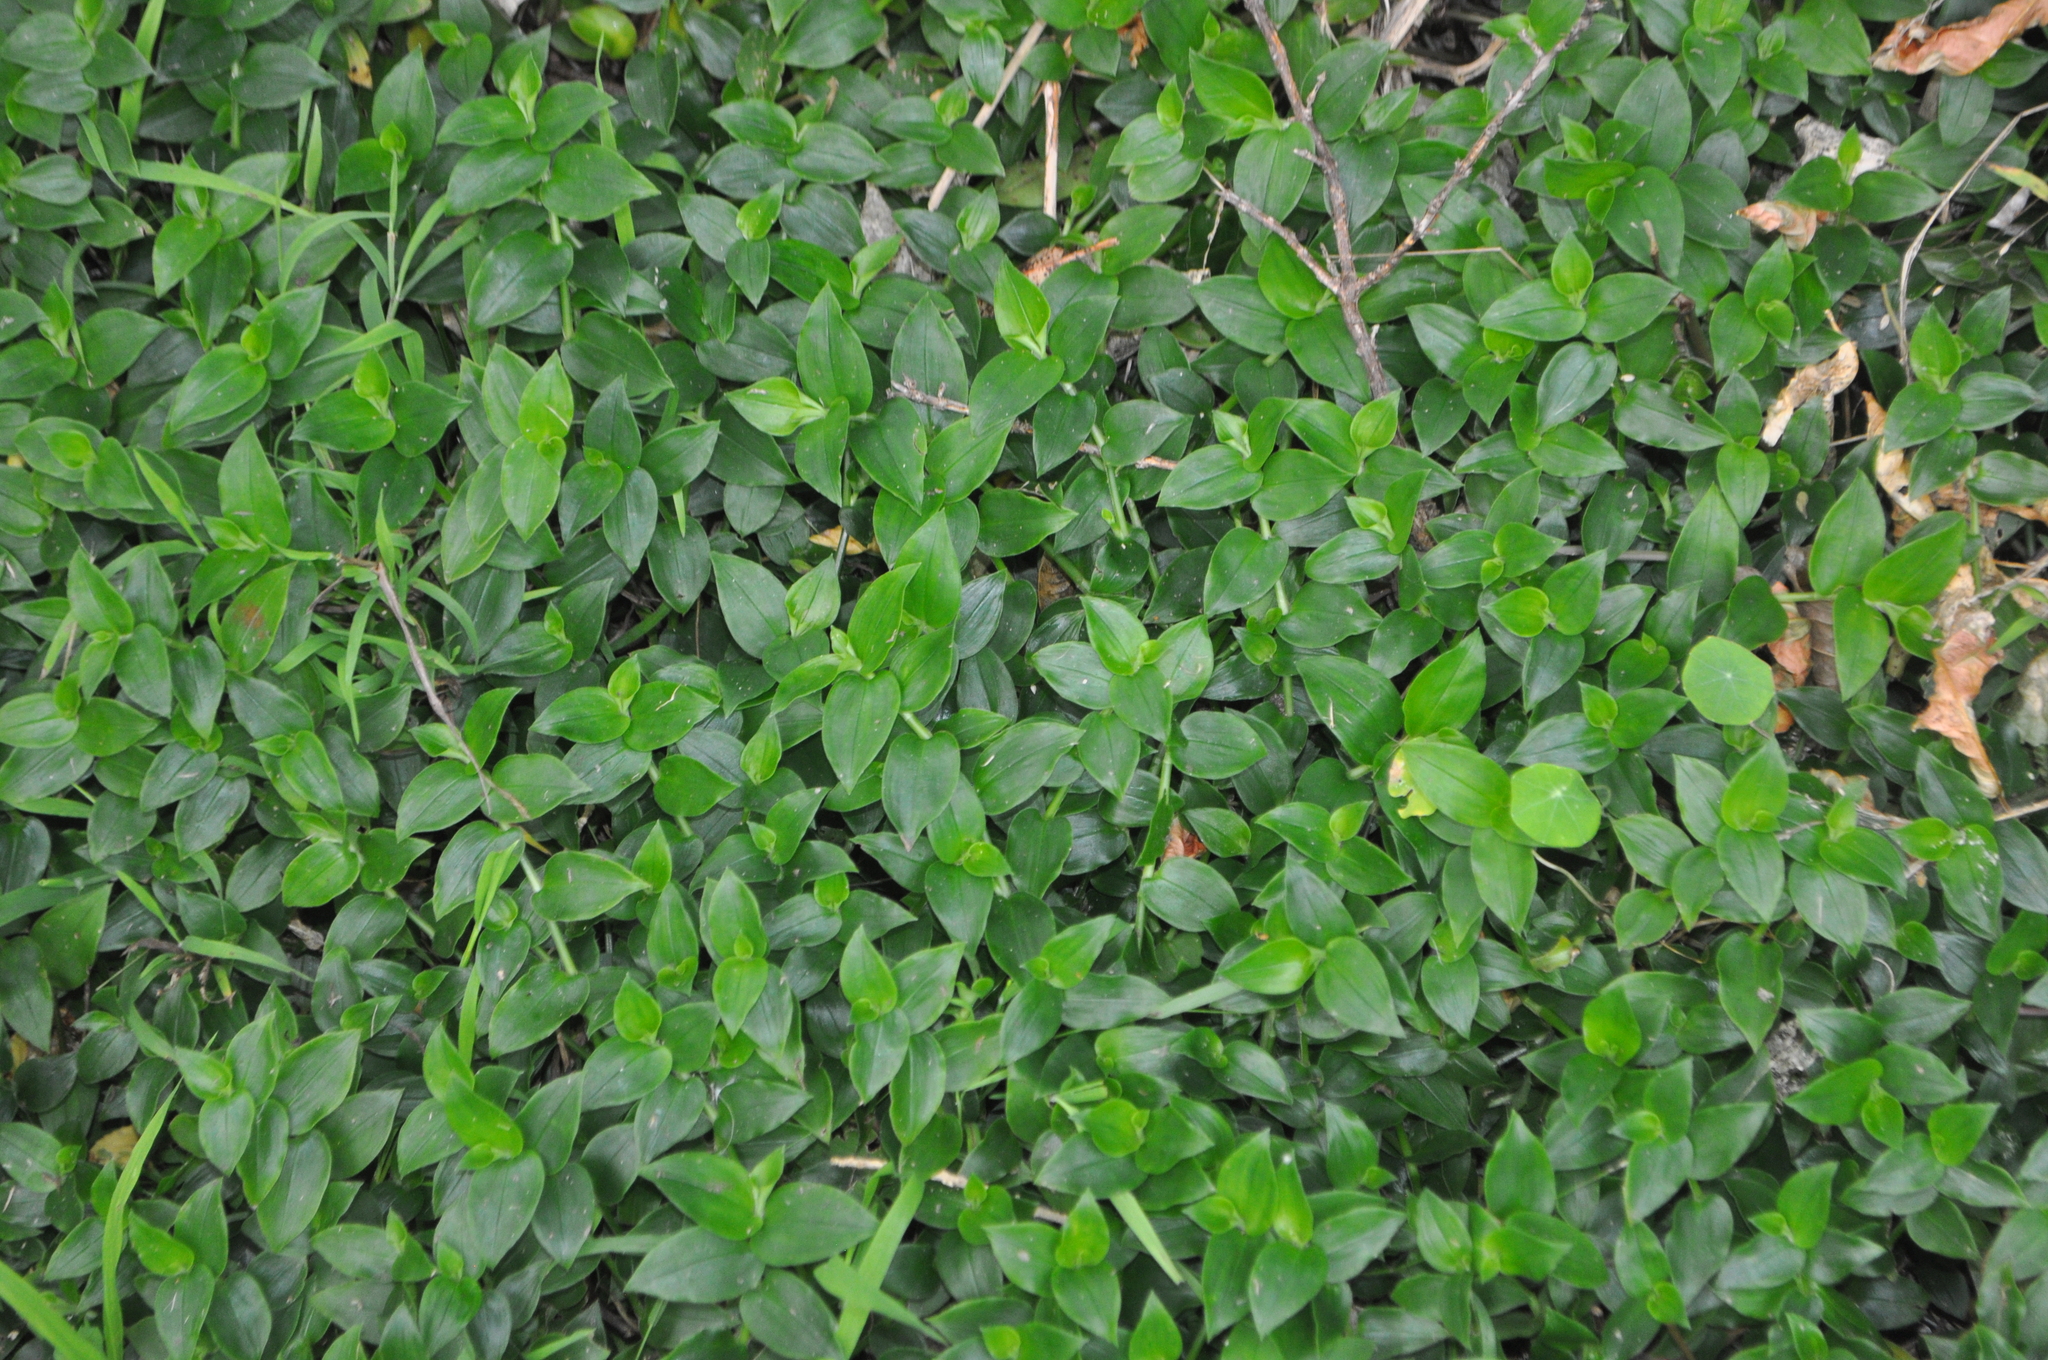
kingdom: Plantae
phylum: Tracheophyta
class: Liliopsida
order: Commelinales
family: Commelinaceae
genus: Tradescantia
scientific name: Tradescantia fluminensis
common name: Wandering-jew
